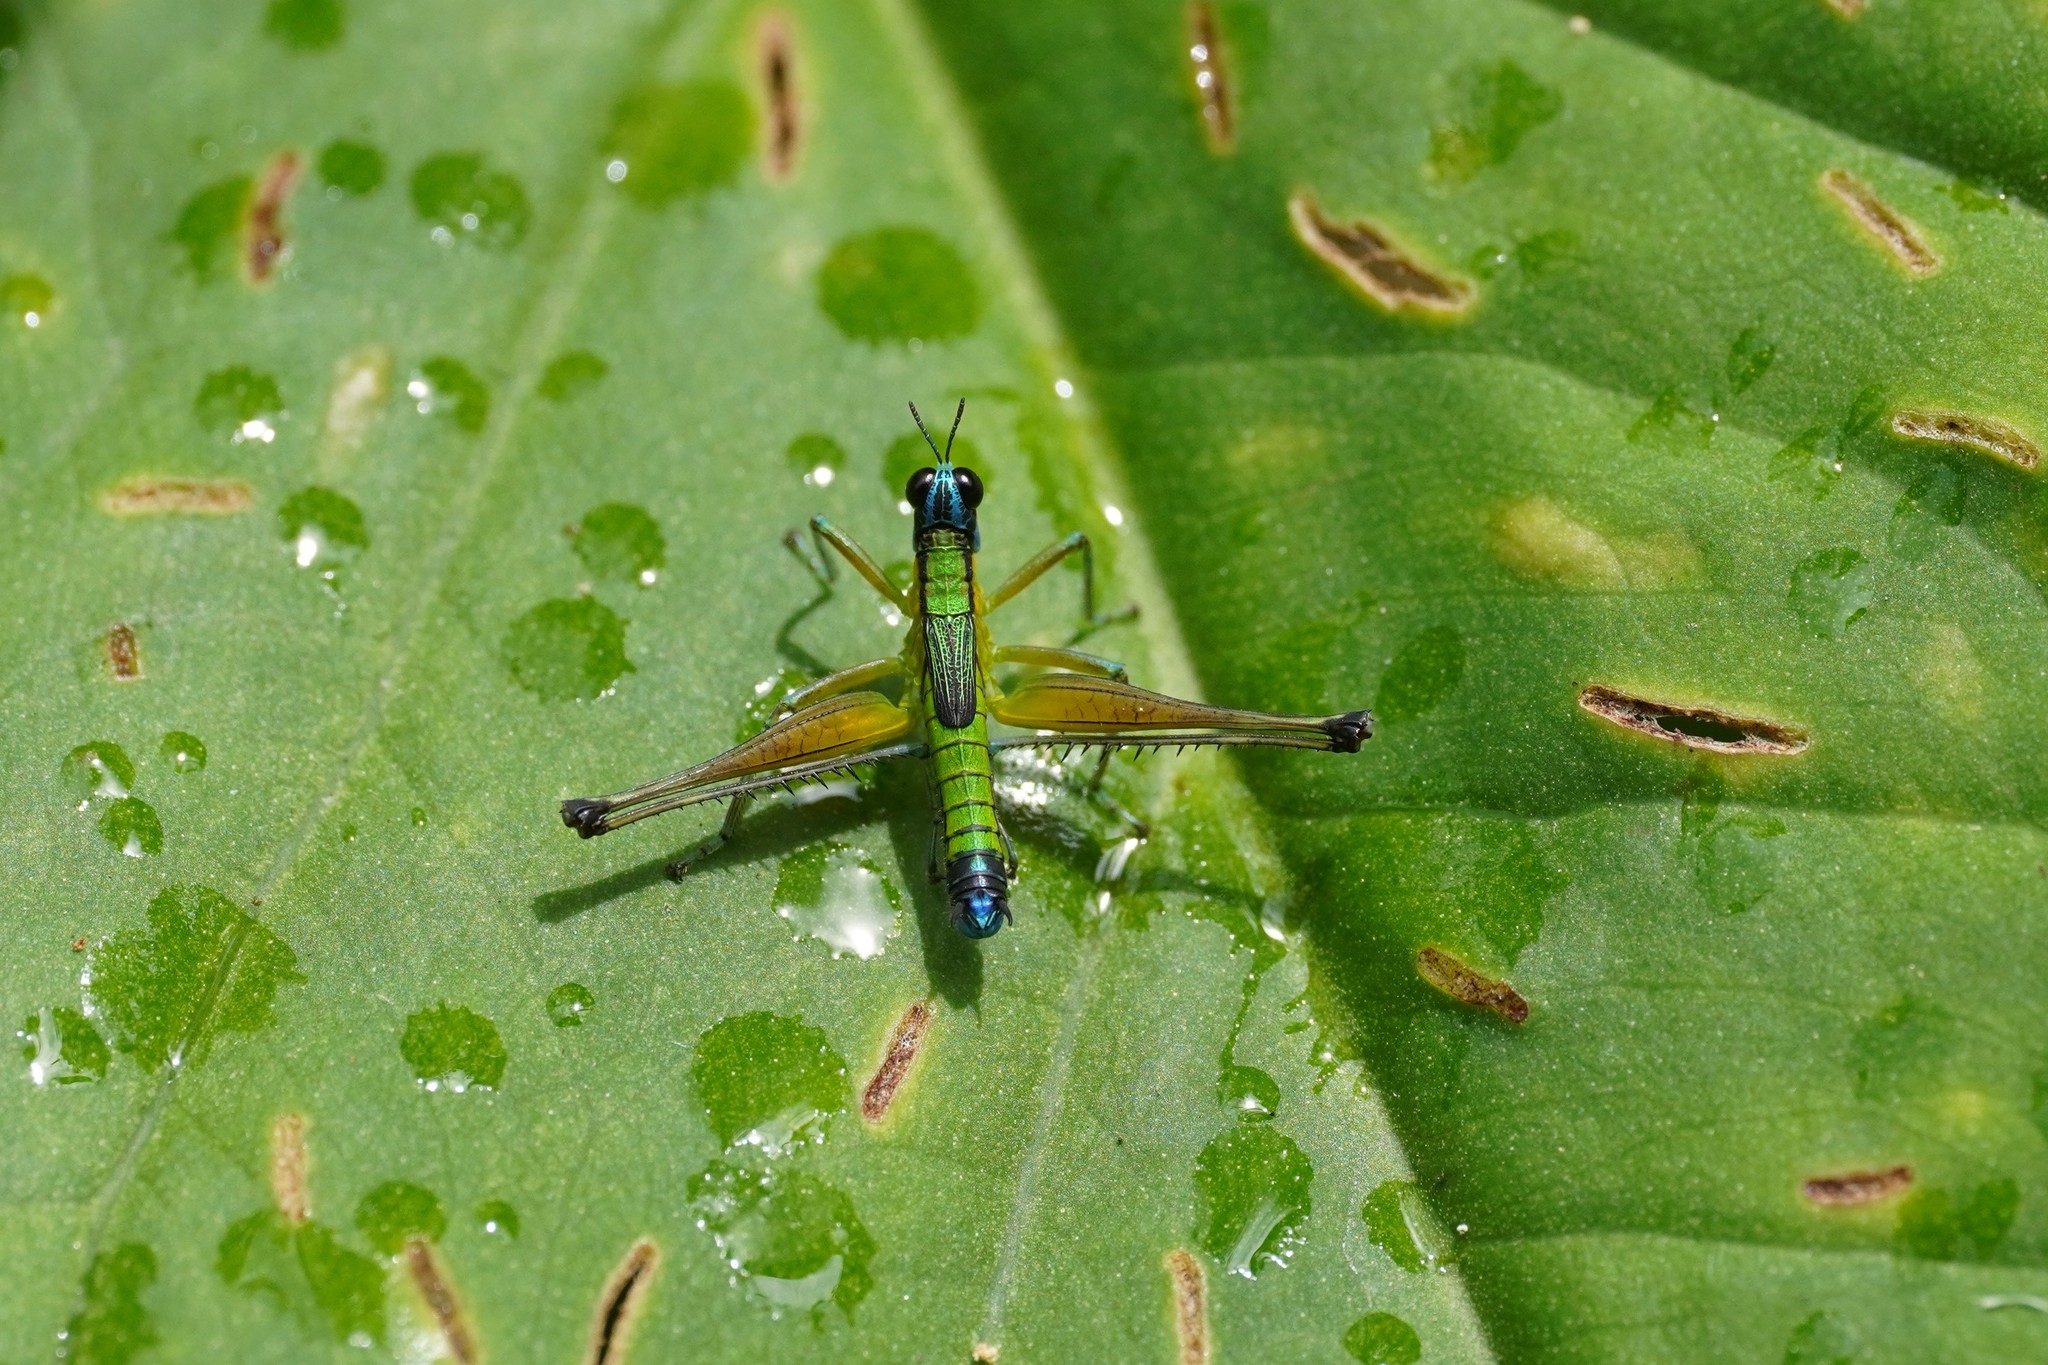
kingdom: Animalia
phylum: Arthropoda
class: Insecta
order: Orthoptera
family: Eumastacidae
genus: Eumastax
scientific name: Eumastax equatoriana
